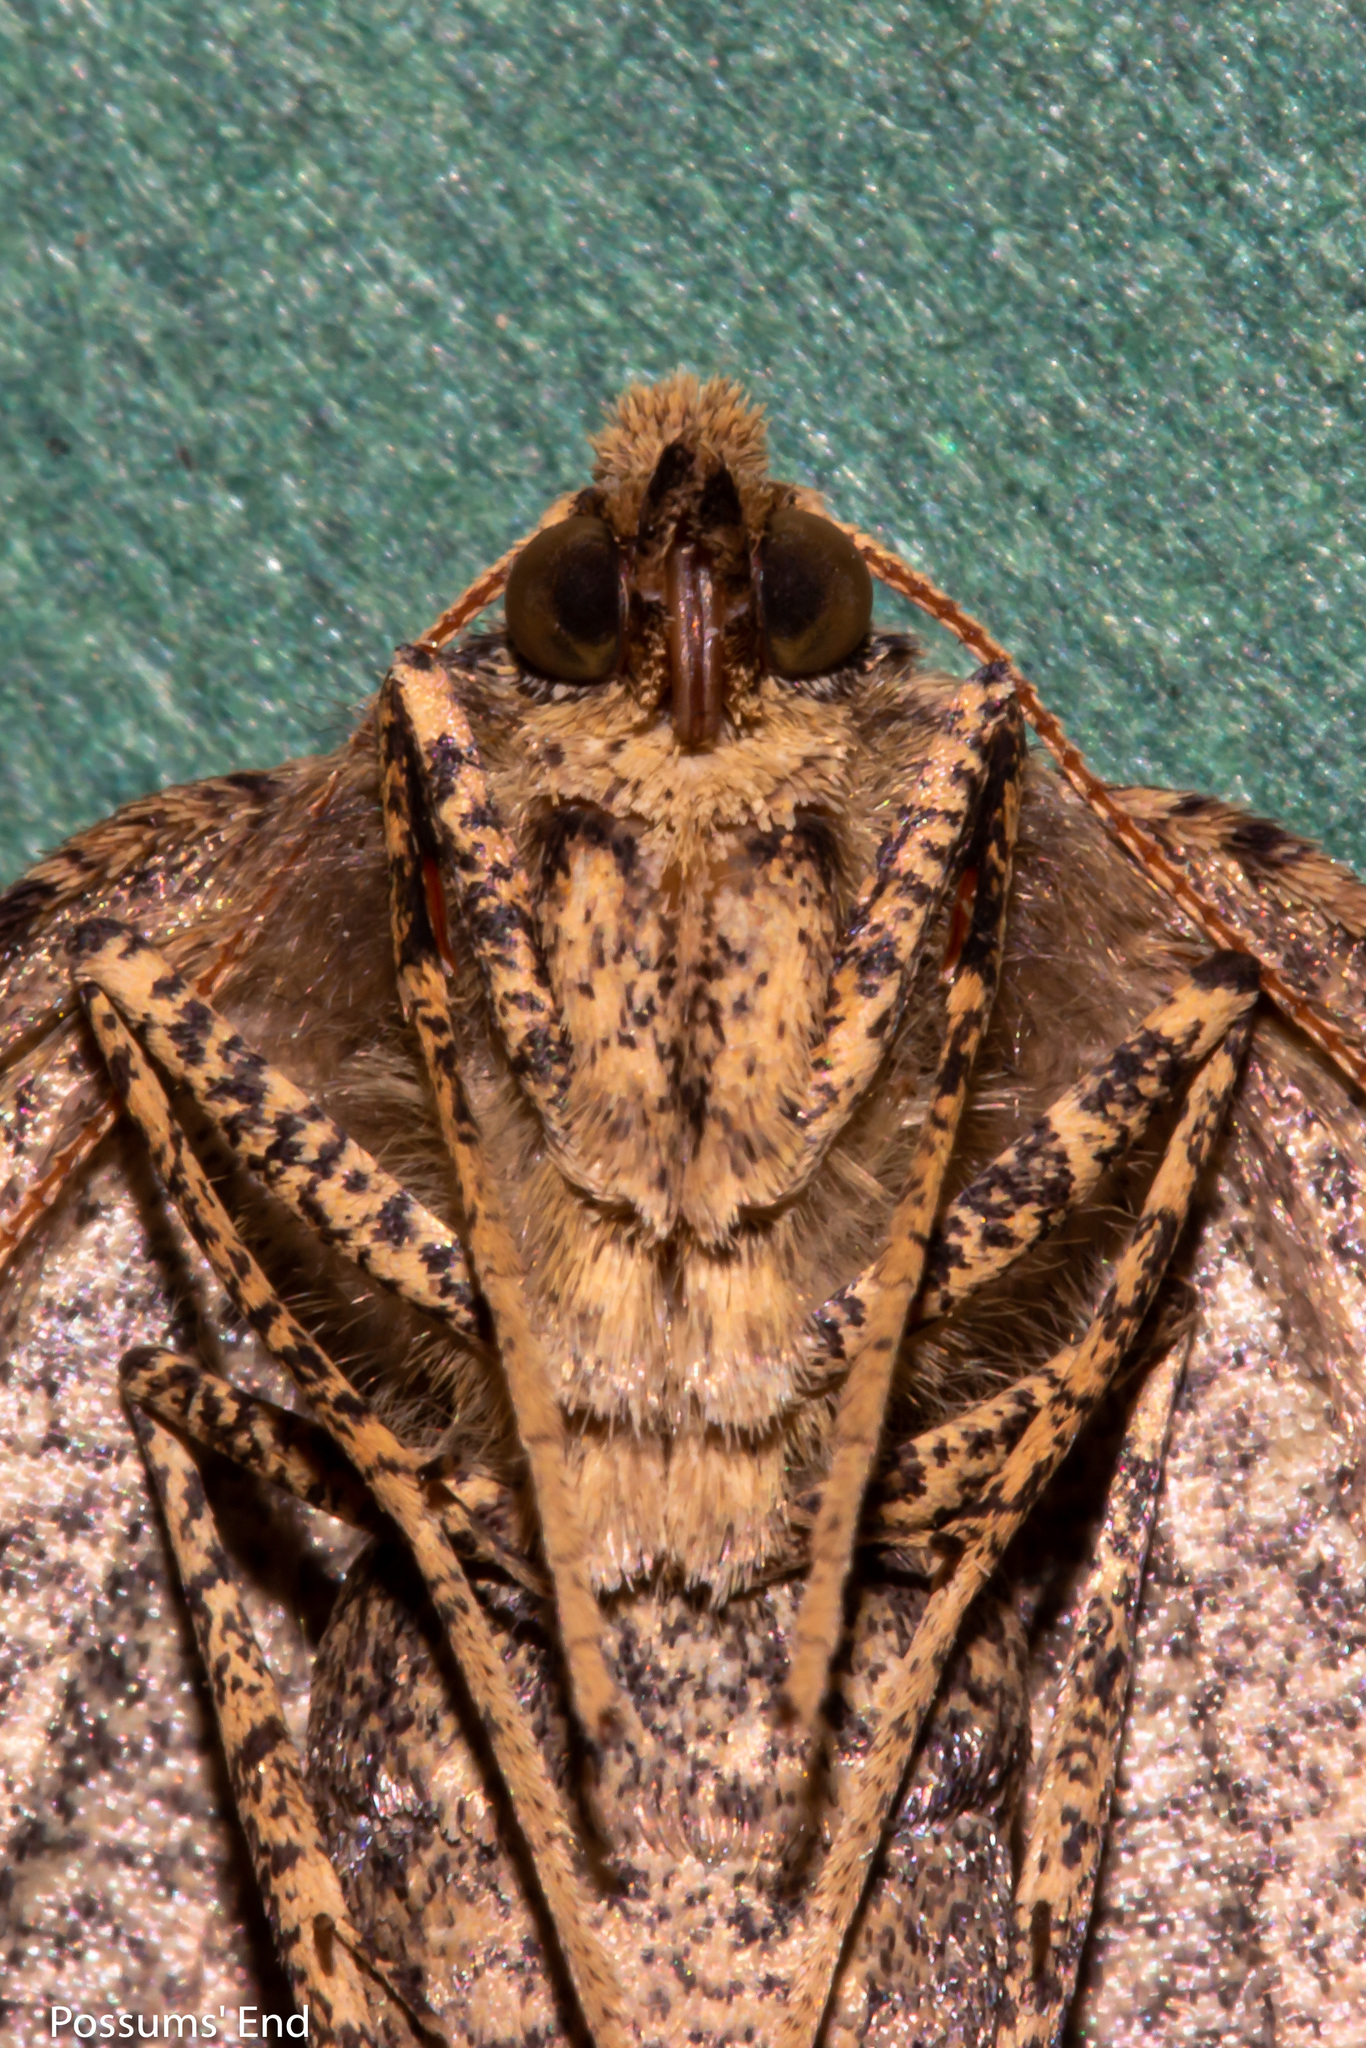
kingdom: Animalia
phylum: Arthropoda
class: Insecta
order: Lepidoptera
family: Geometridae
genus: Cleora
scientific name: Cleora scriptaria
